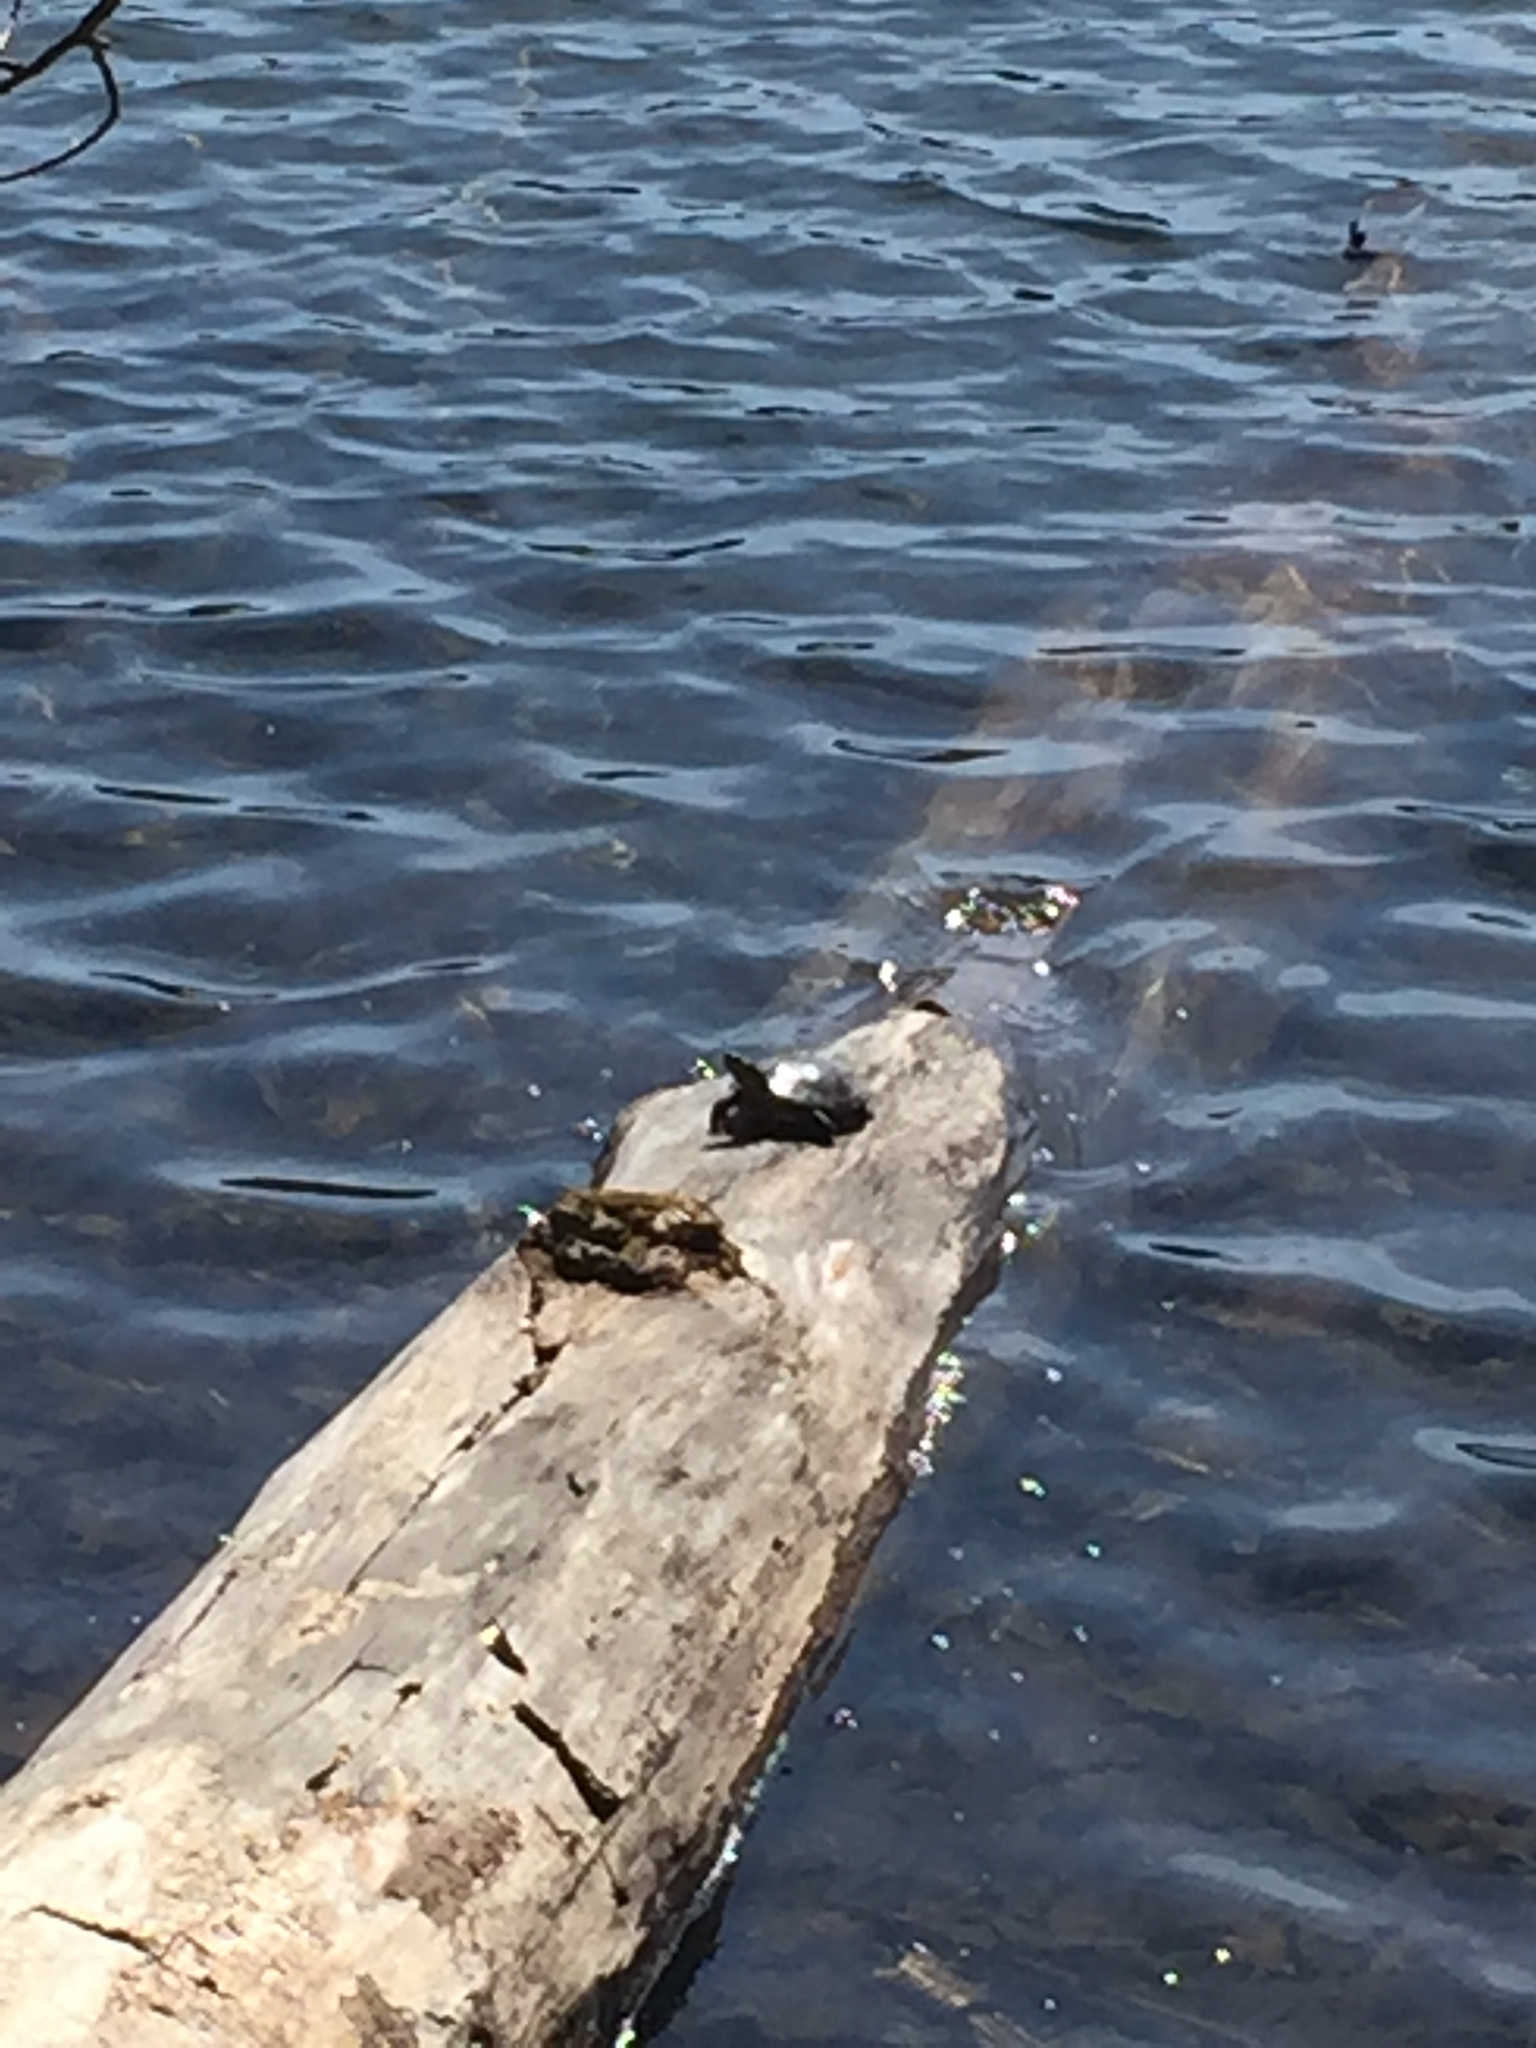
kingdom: Animalia
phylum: Chordata
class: Testudines
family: Emydidae
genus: Chrysemys
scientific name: Chrysemys picta
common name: Painted turtle
